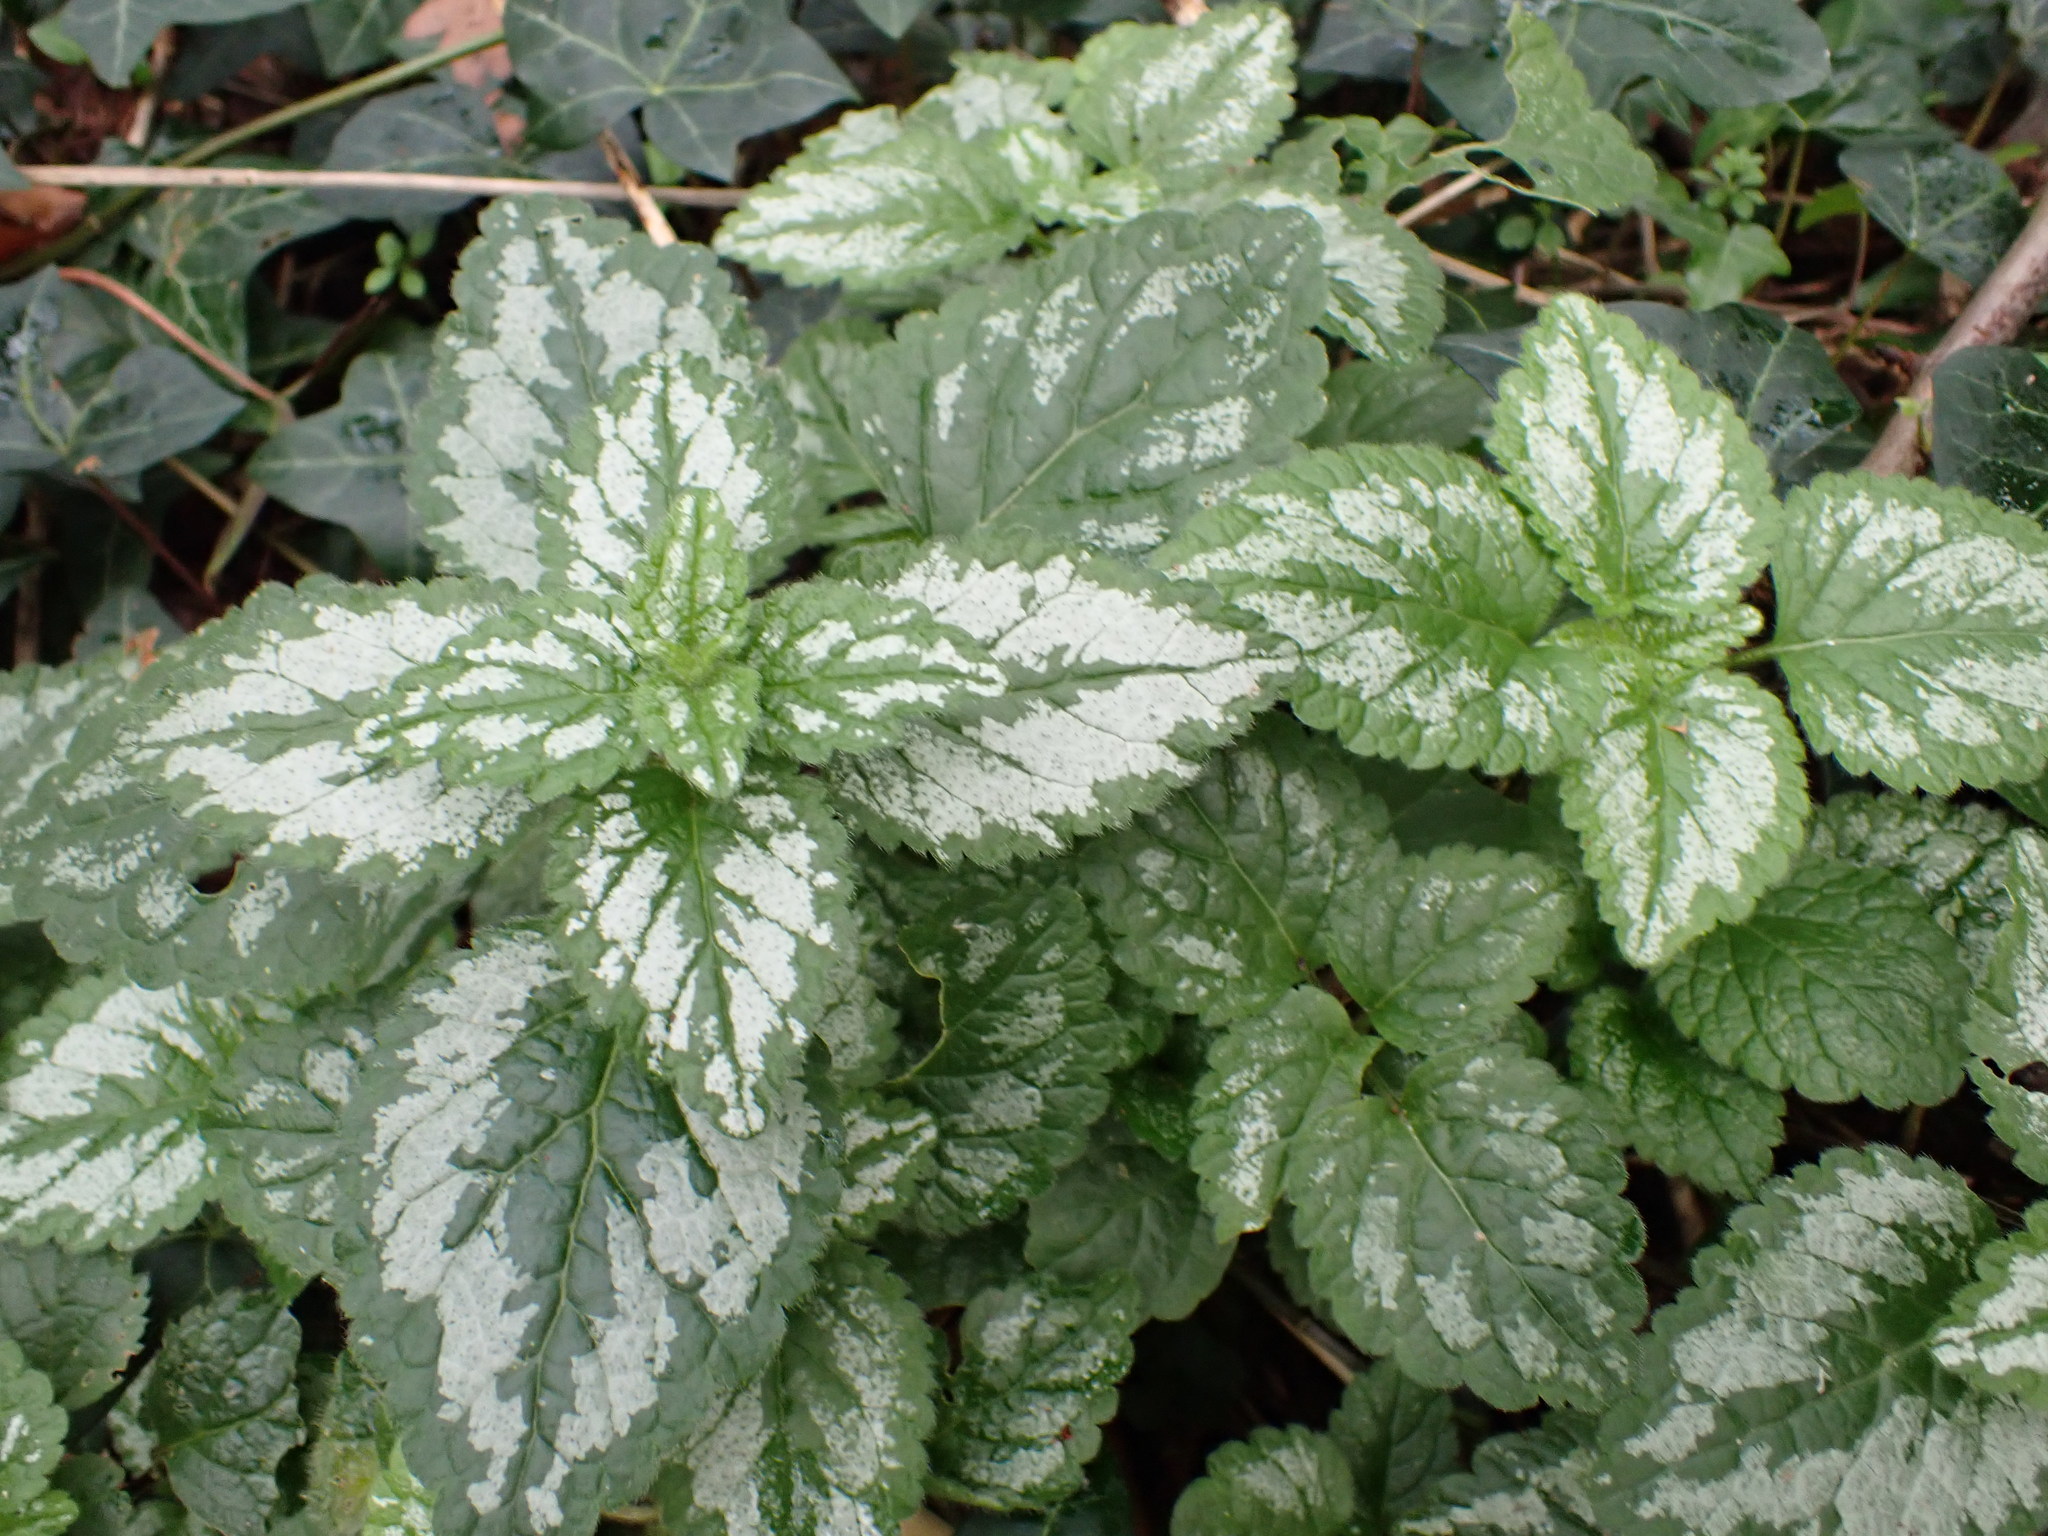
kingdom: Plantae
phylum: Tracheophyta
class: Magnoliopsida
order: Lamiales
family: Lamiaceae
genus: Lamium
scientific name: Lamium galeobdolon
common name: Yellow archangel
